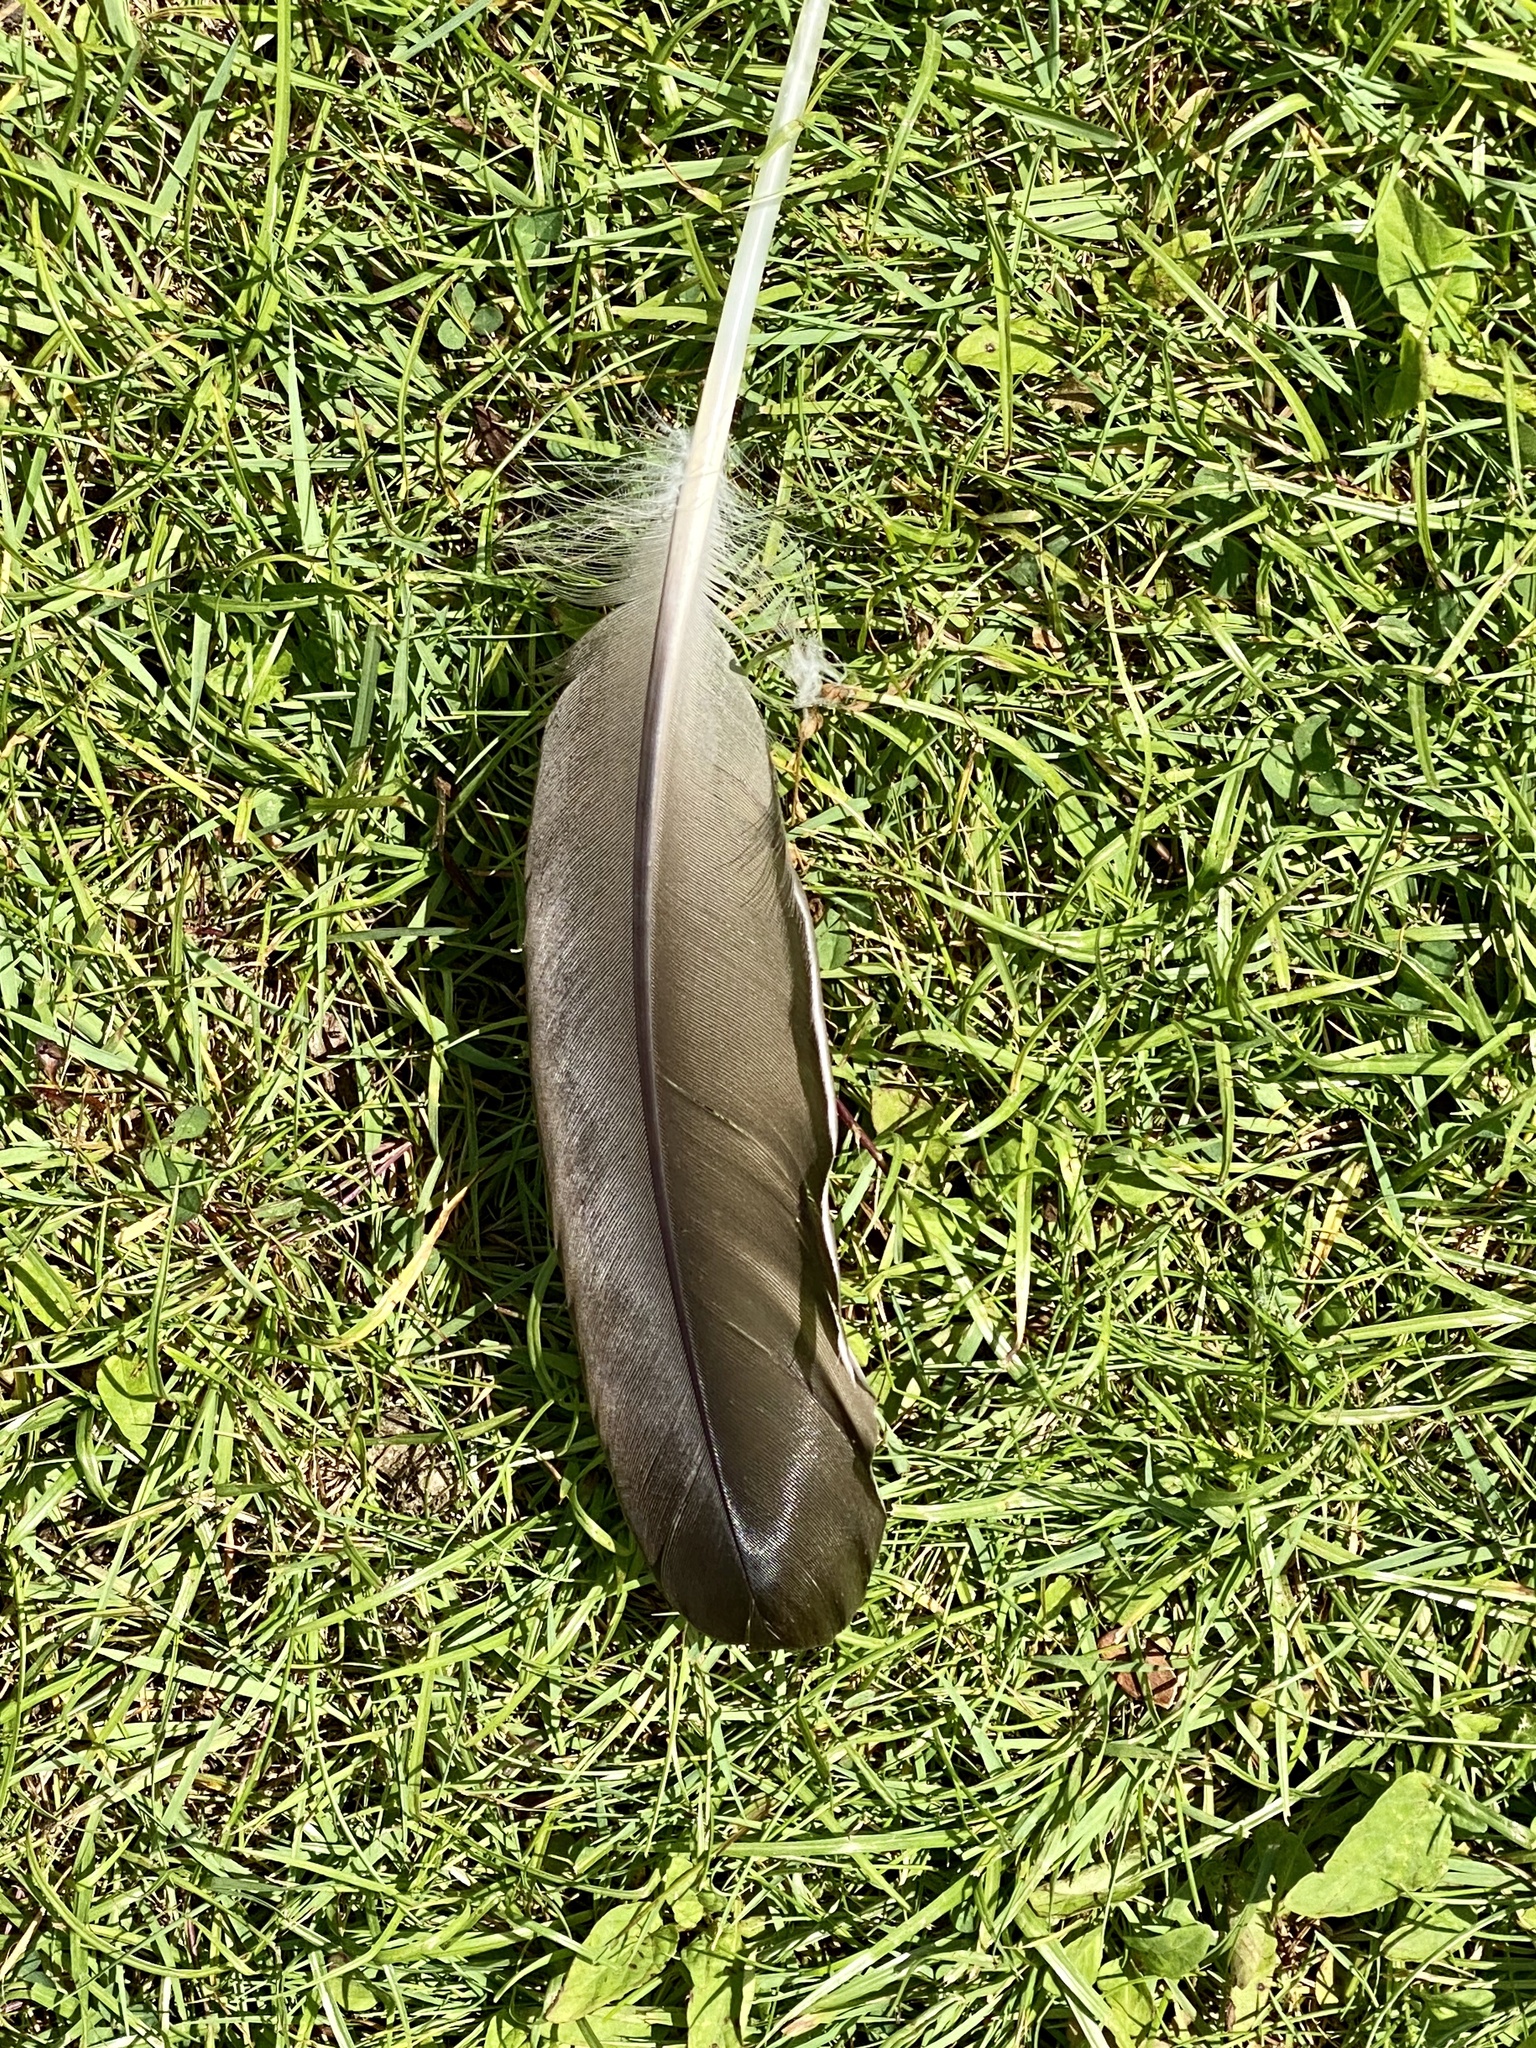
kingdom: Animalia
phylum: Chordata
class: Aves
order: Anseriformes
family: Anatidae
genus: Branta
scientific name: Branta canadensis
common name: Canada goose
